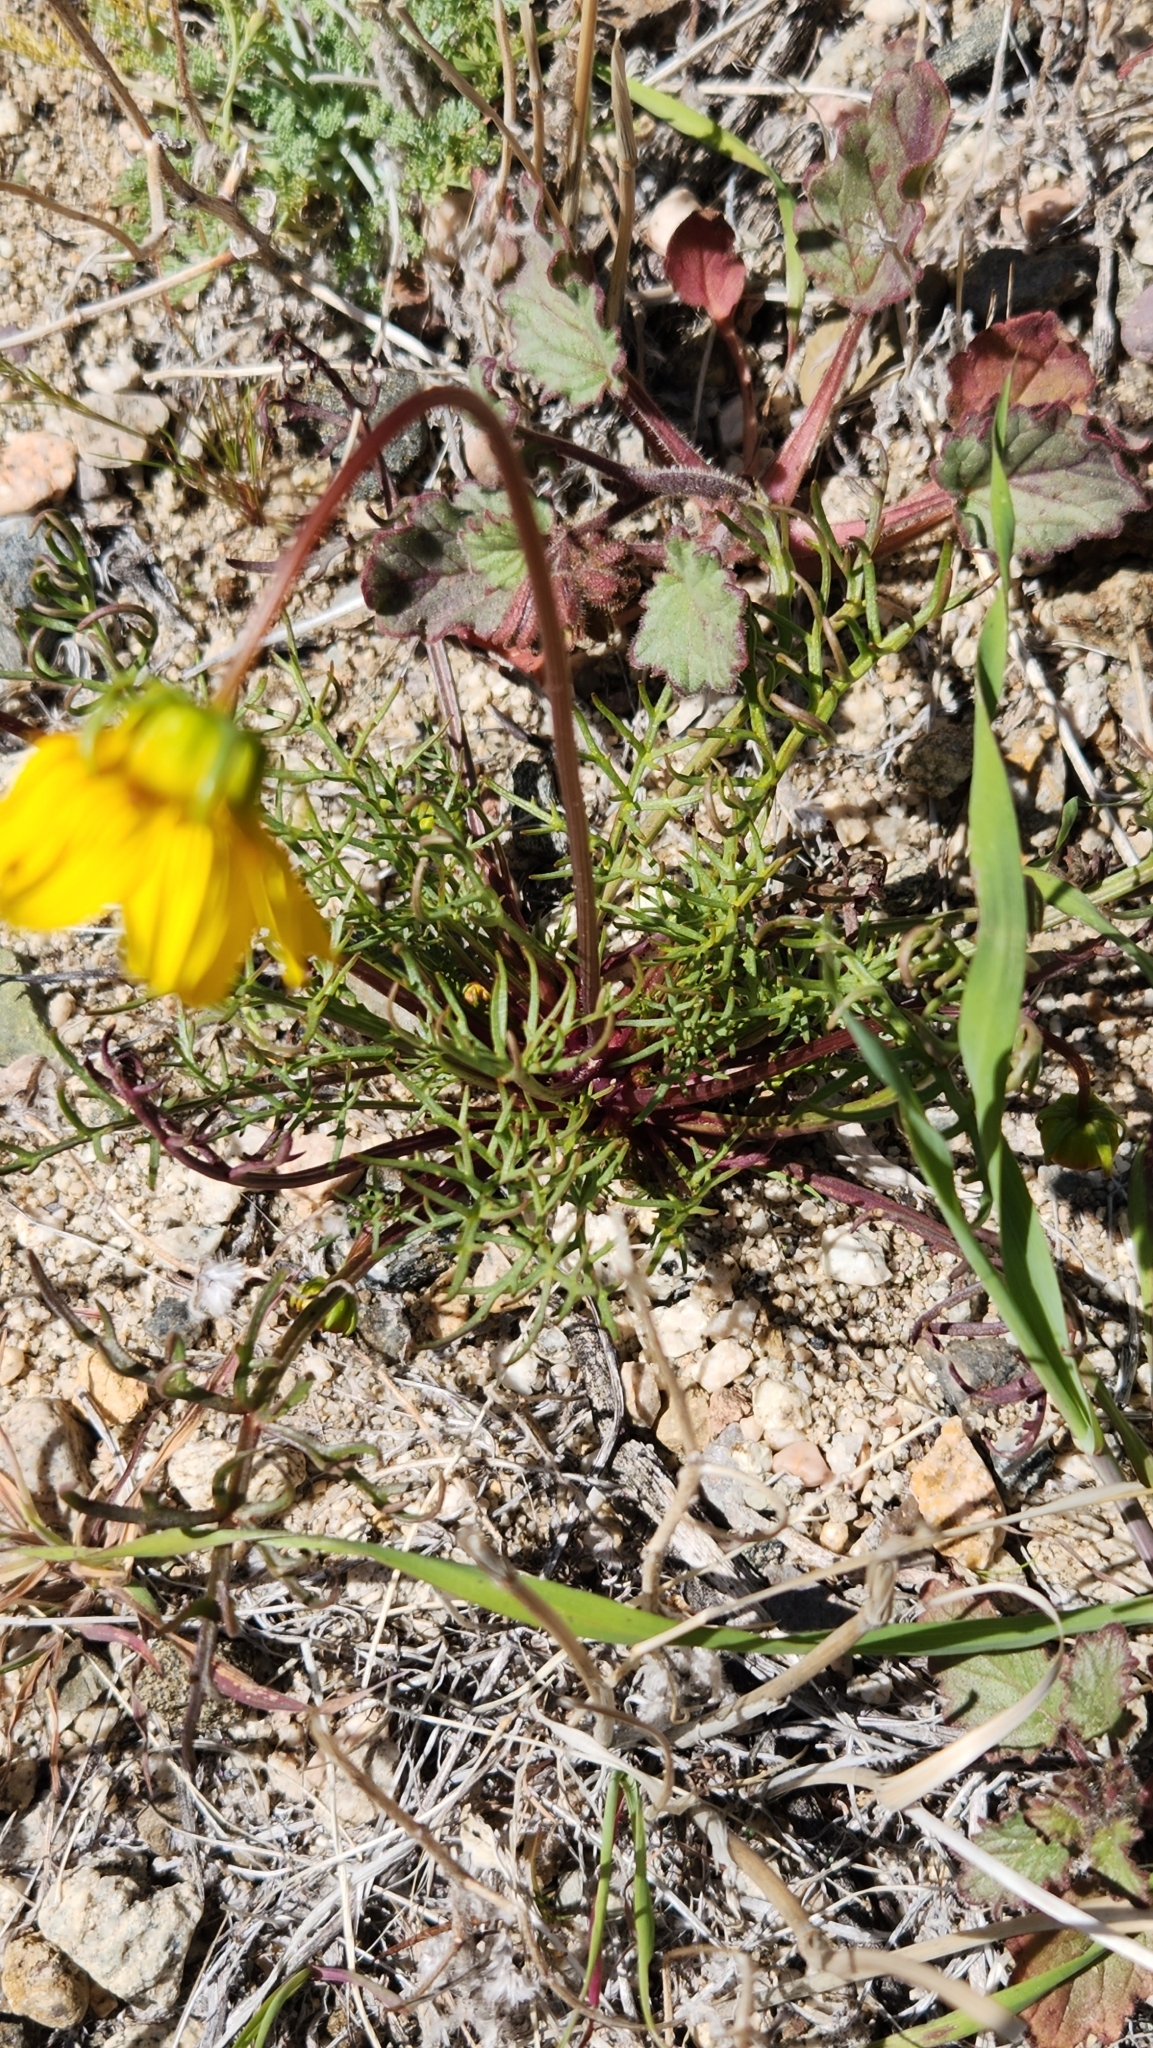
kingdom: Plantae
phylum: Tracheophyta
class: Magnoliopsida
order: Asterales
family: Asteraceae
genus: Coreopsis
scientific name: Coreopsis bigelovii
